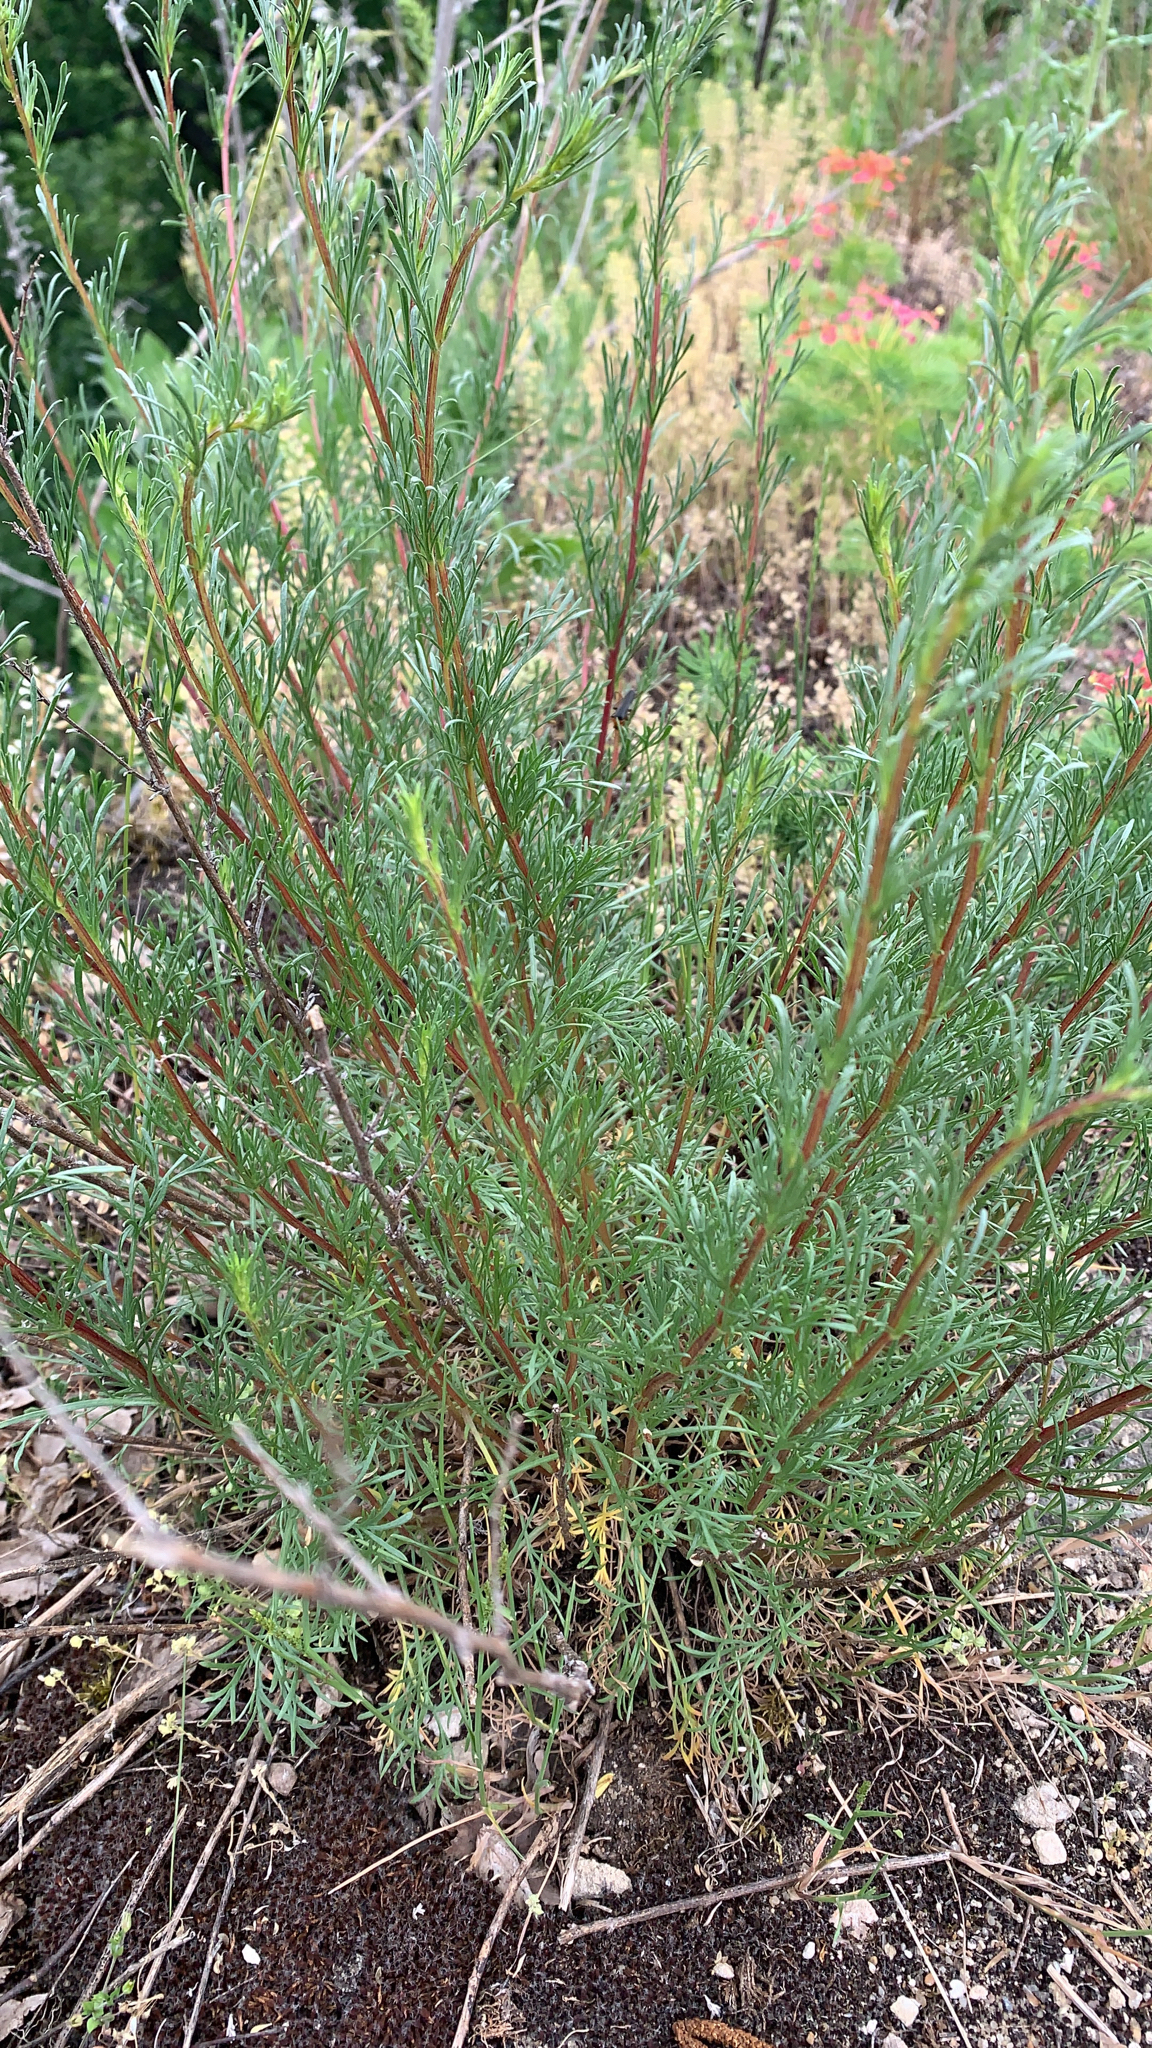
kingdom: Plantae
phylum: Tracheophyta
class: Magnoliopsida
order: Asterales
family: Asteraceae
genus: Artemisia
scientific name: Artemisia campestris
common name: Field wormwood
